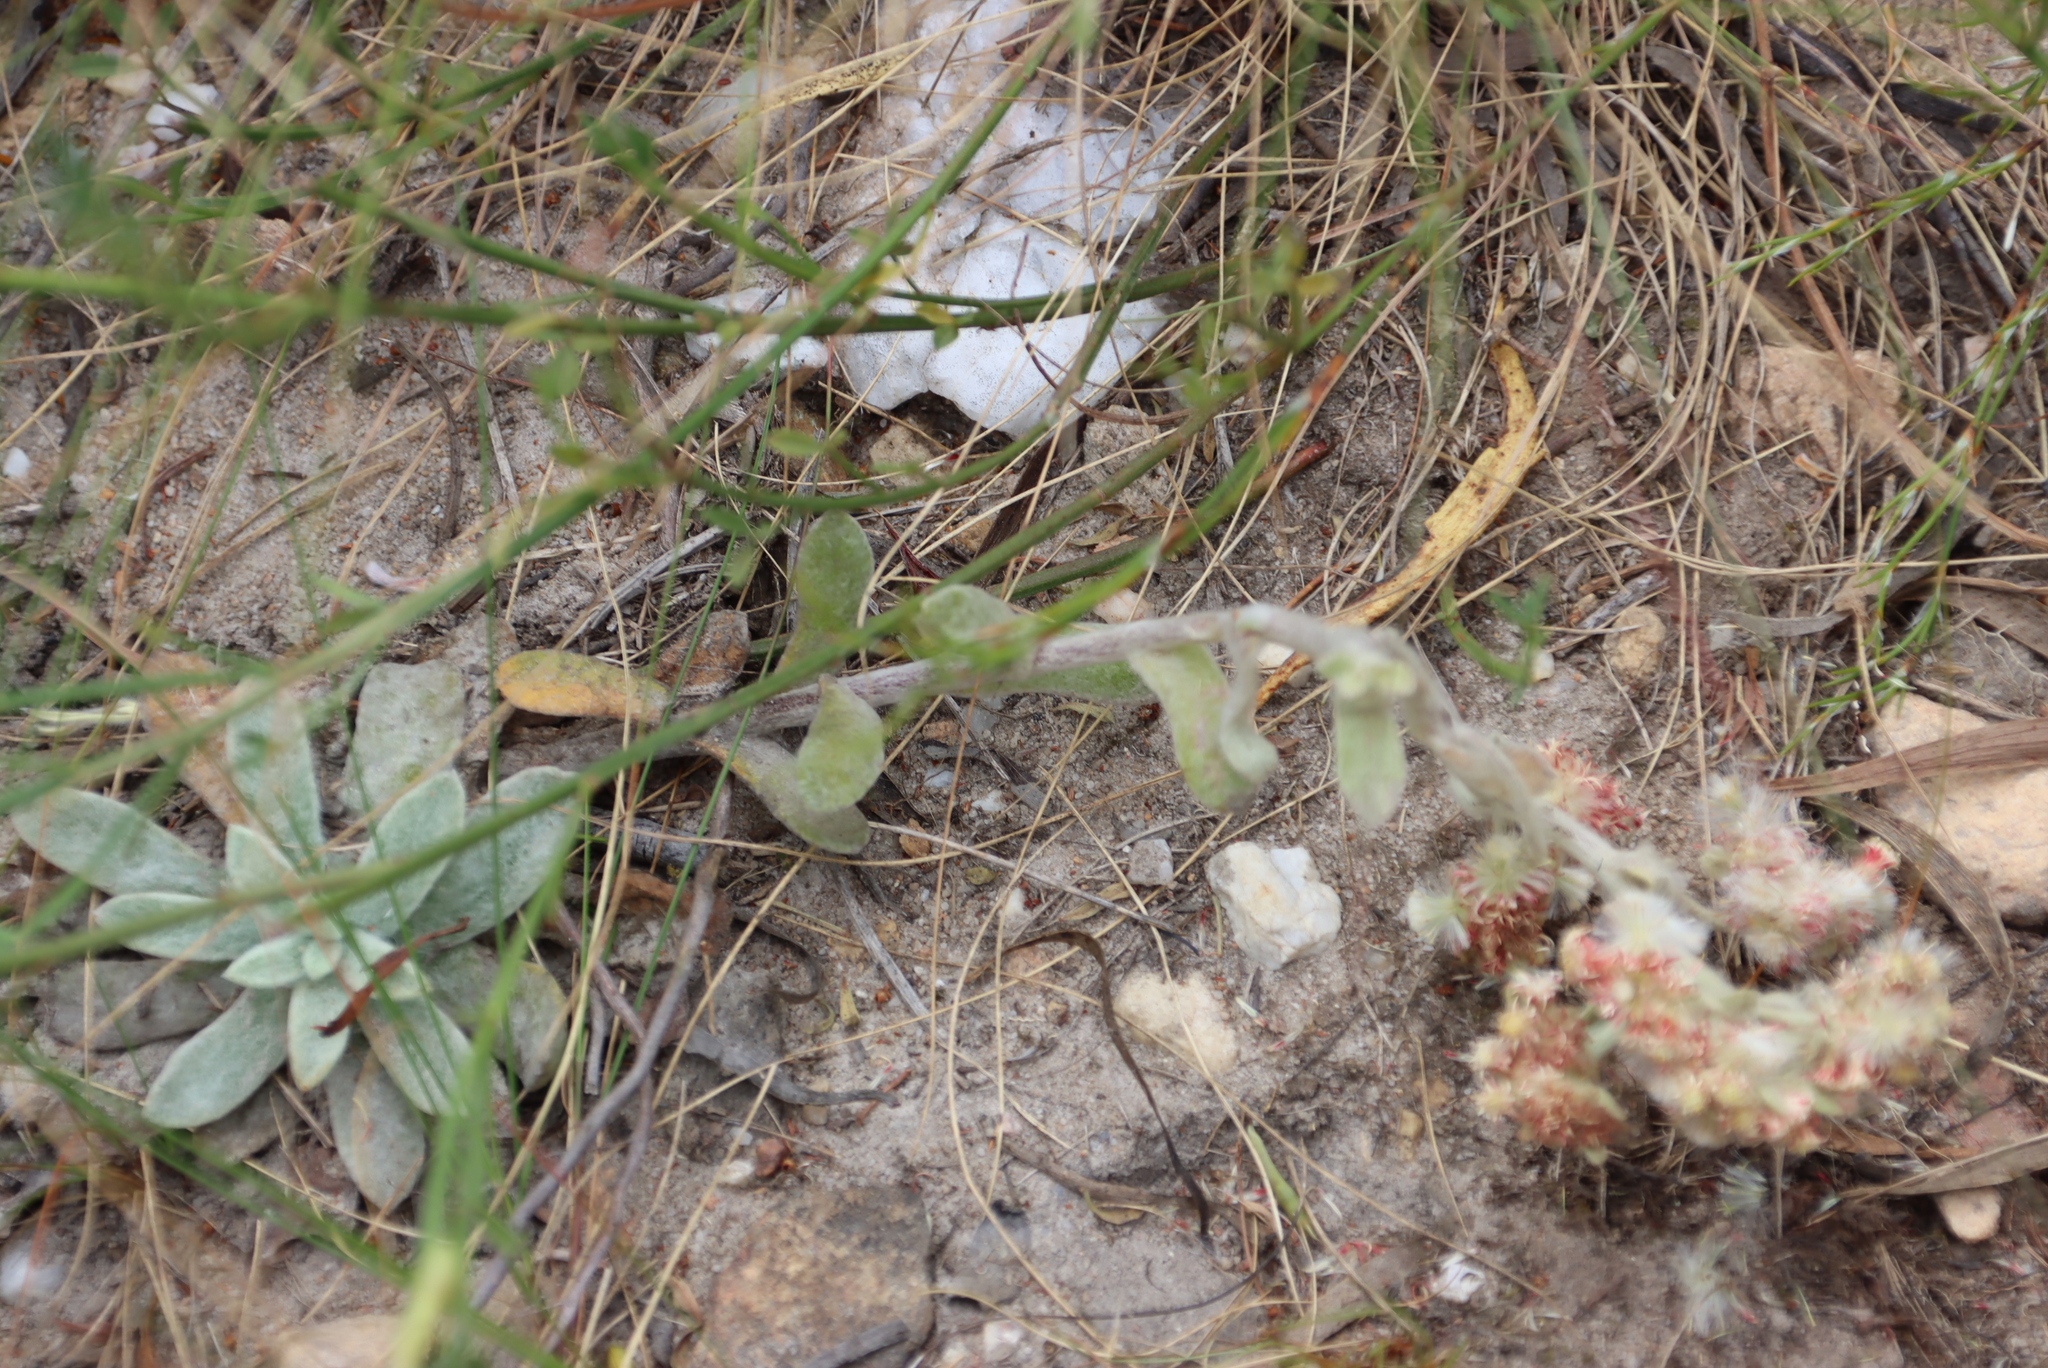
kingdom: Plantae
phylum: Tracheophyta
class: Magnoliopsida
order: Asterales
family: Asteraceae
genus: Helichrysum
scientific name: Helichrysum spiralepis
